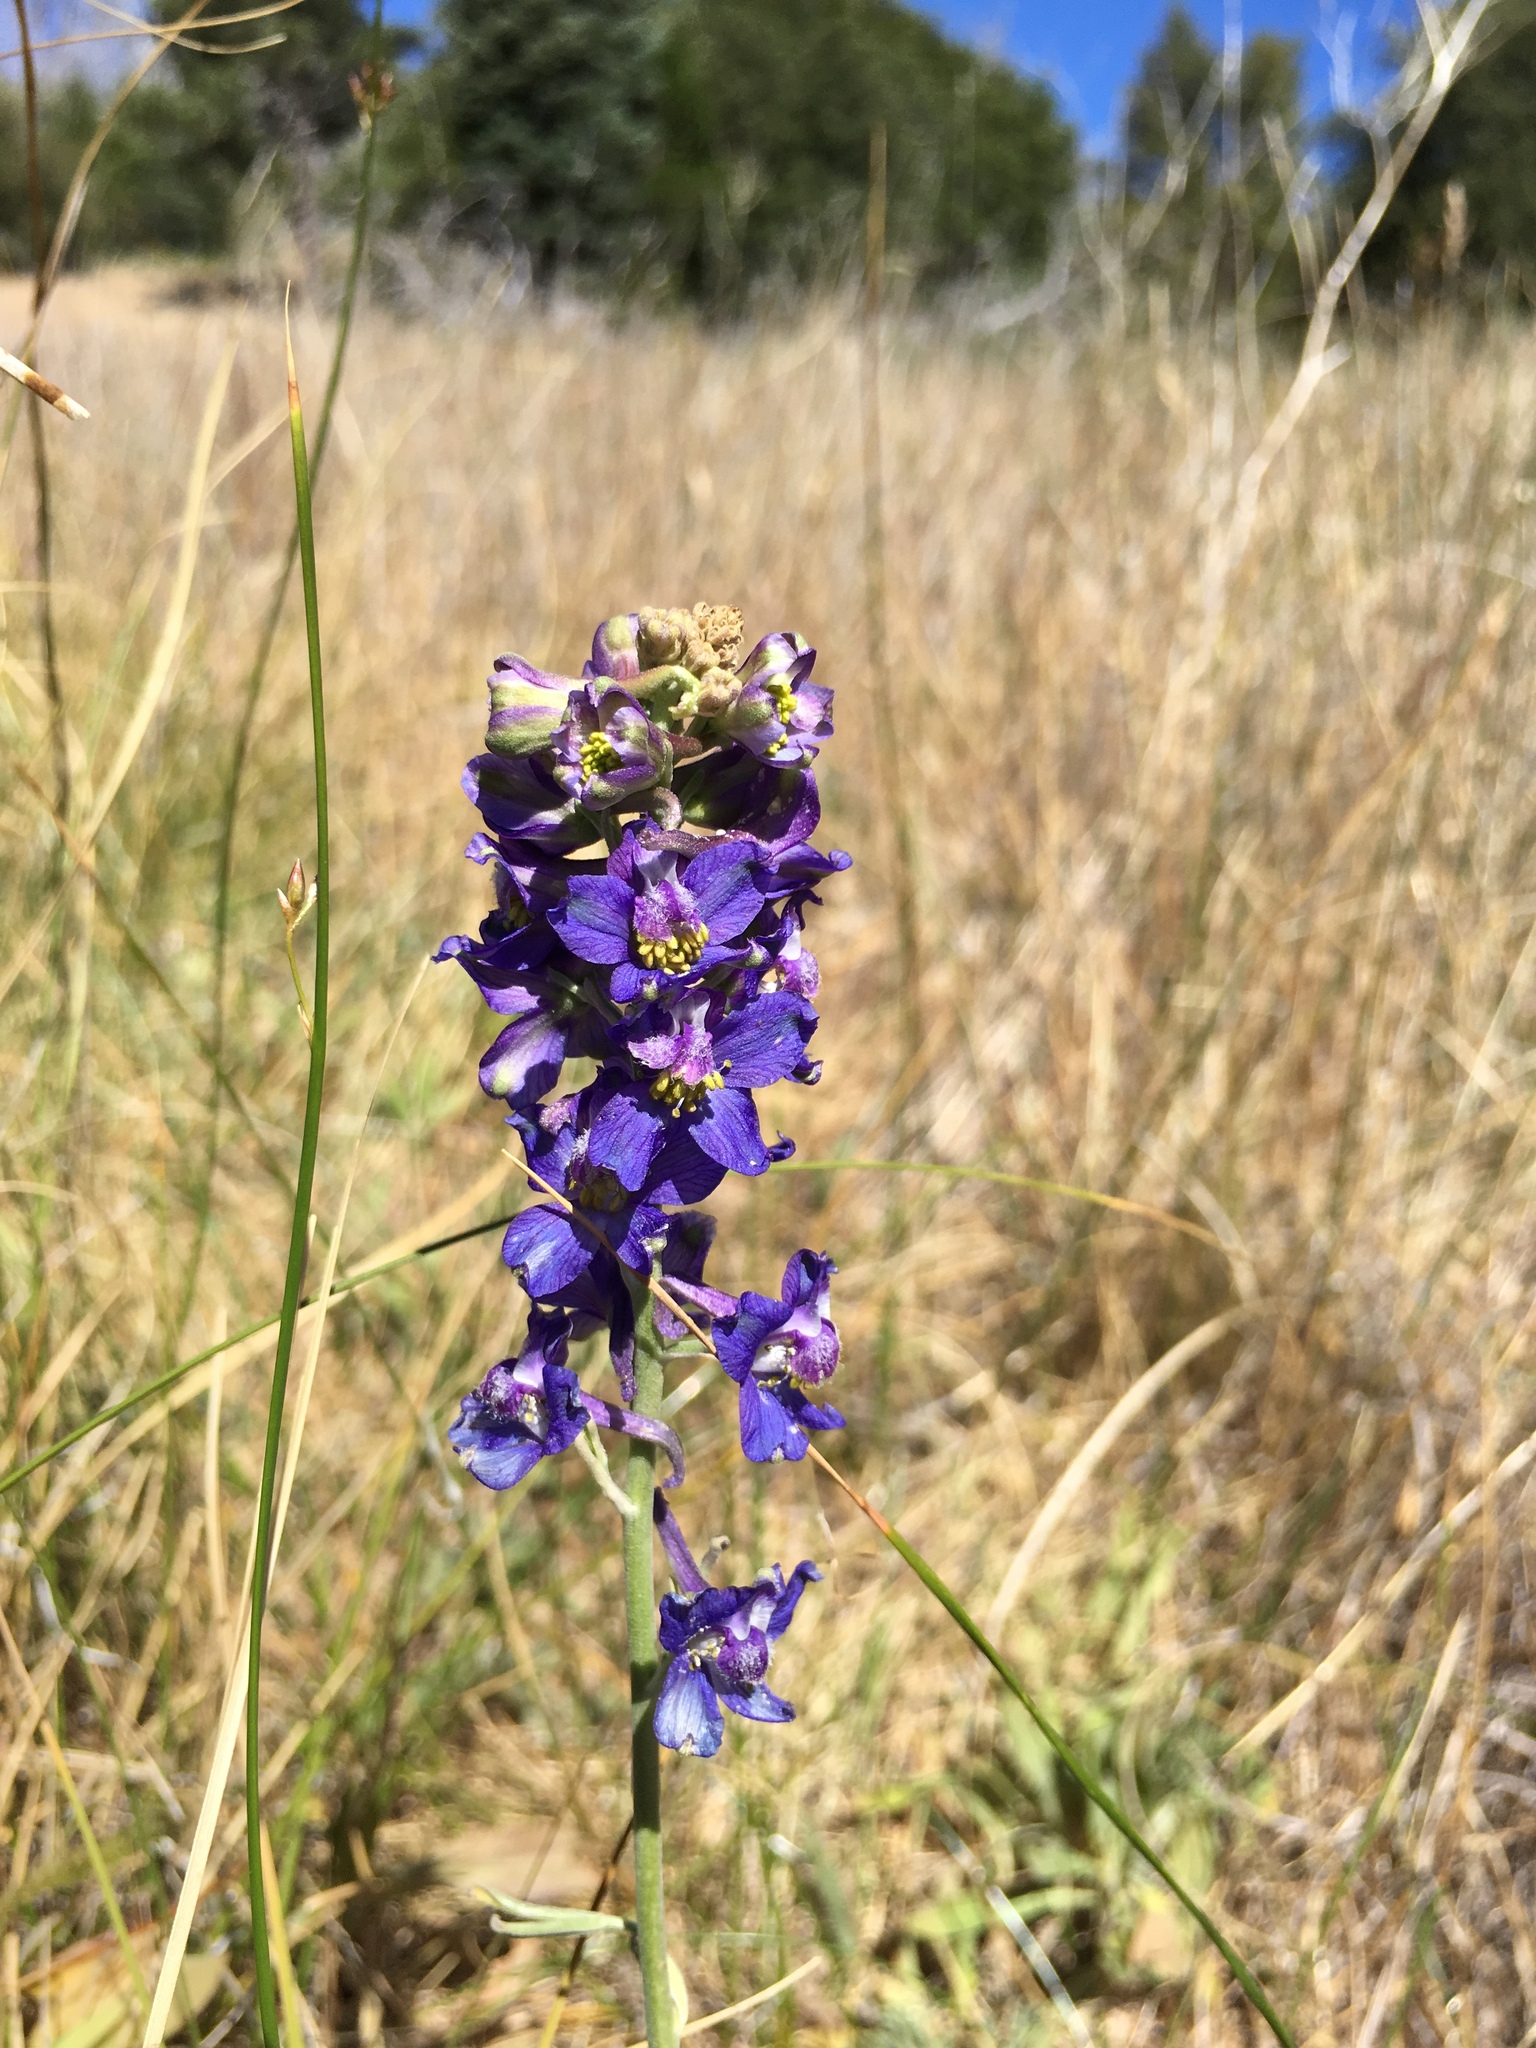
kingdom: Plantae
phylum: Tracheophyta
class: Magnoliopsida
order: Ranunculales
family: Ranunculaceae
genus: Delphinium
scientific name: Delphinium hesperium
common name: Western larkspur
